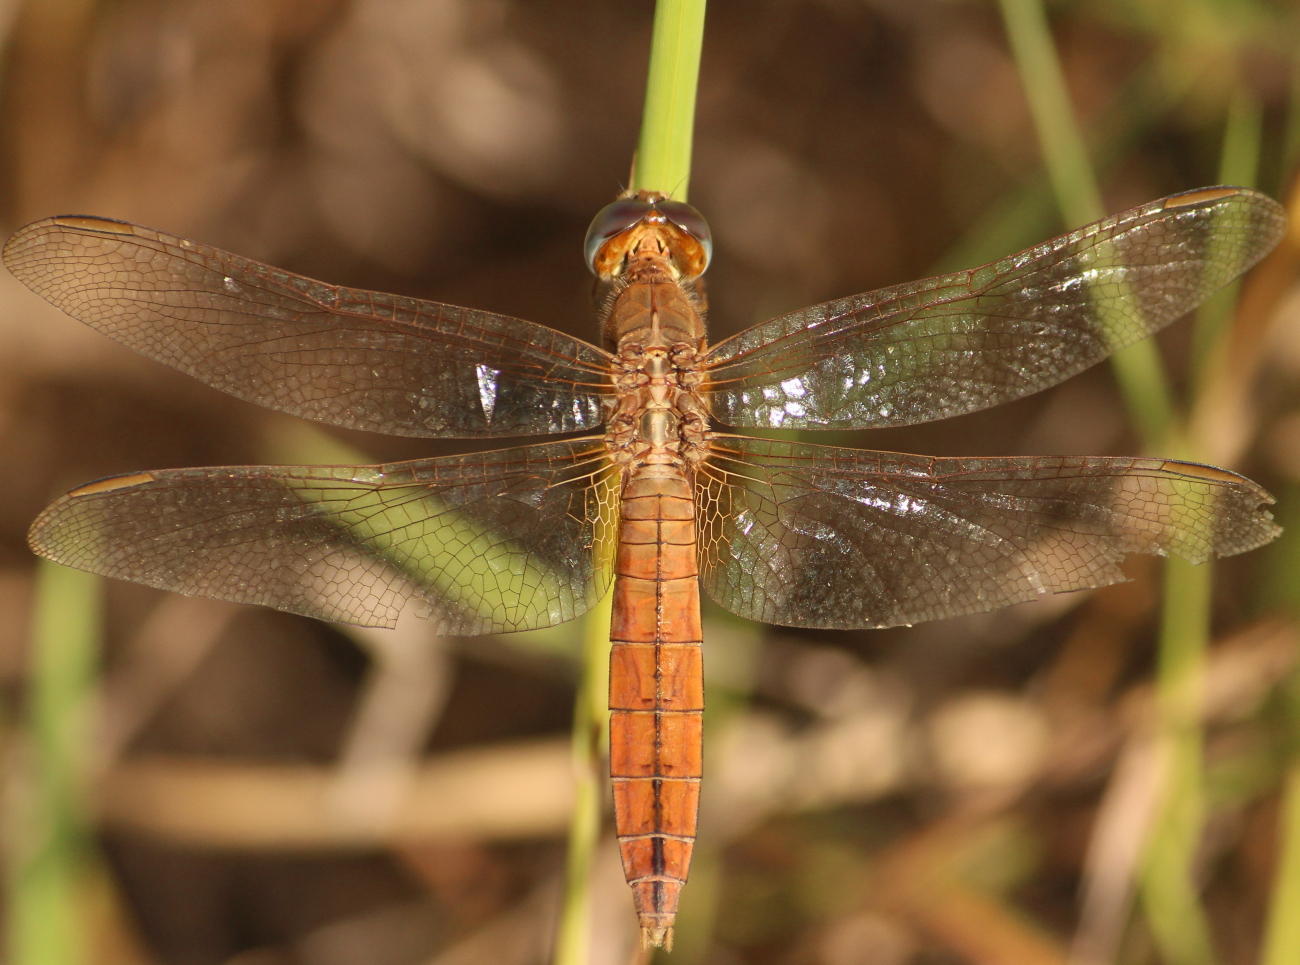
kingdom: Animalia
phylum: Arthropoda
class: Insecta
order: Odonata
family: Libellulidae
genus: Crocothemis
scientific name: Crocothemis erythraea
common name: Scarlet dragonfly
